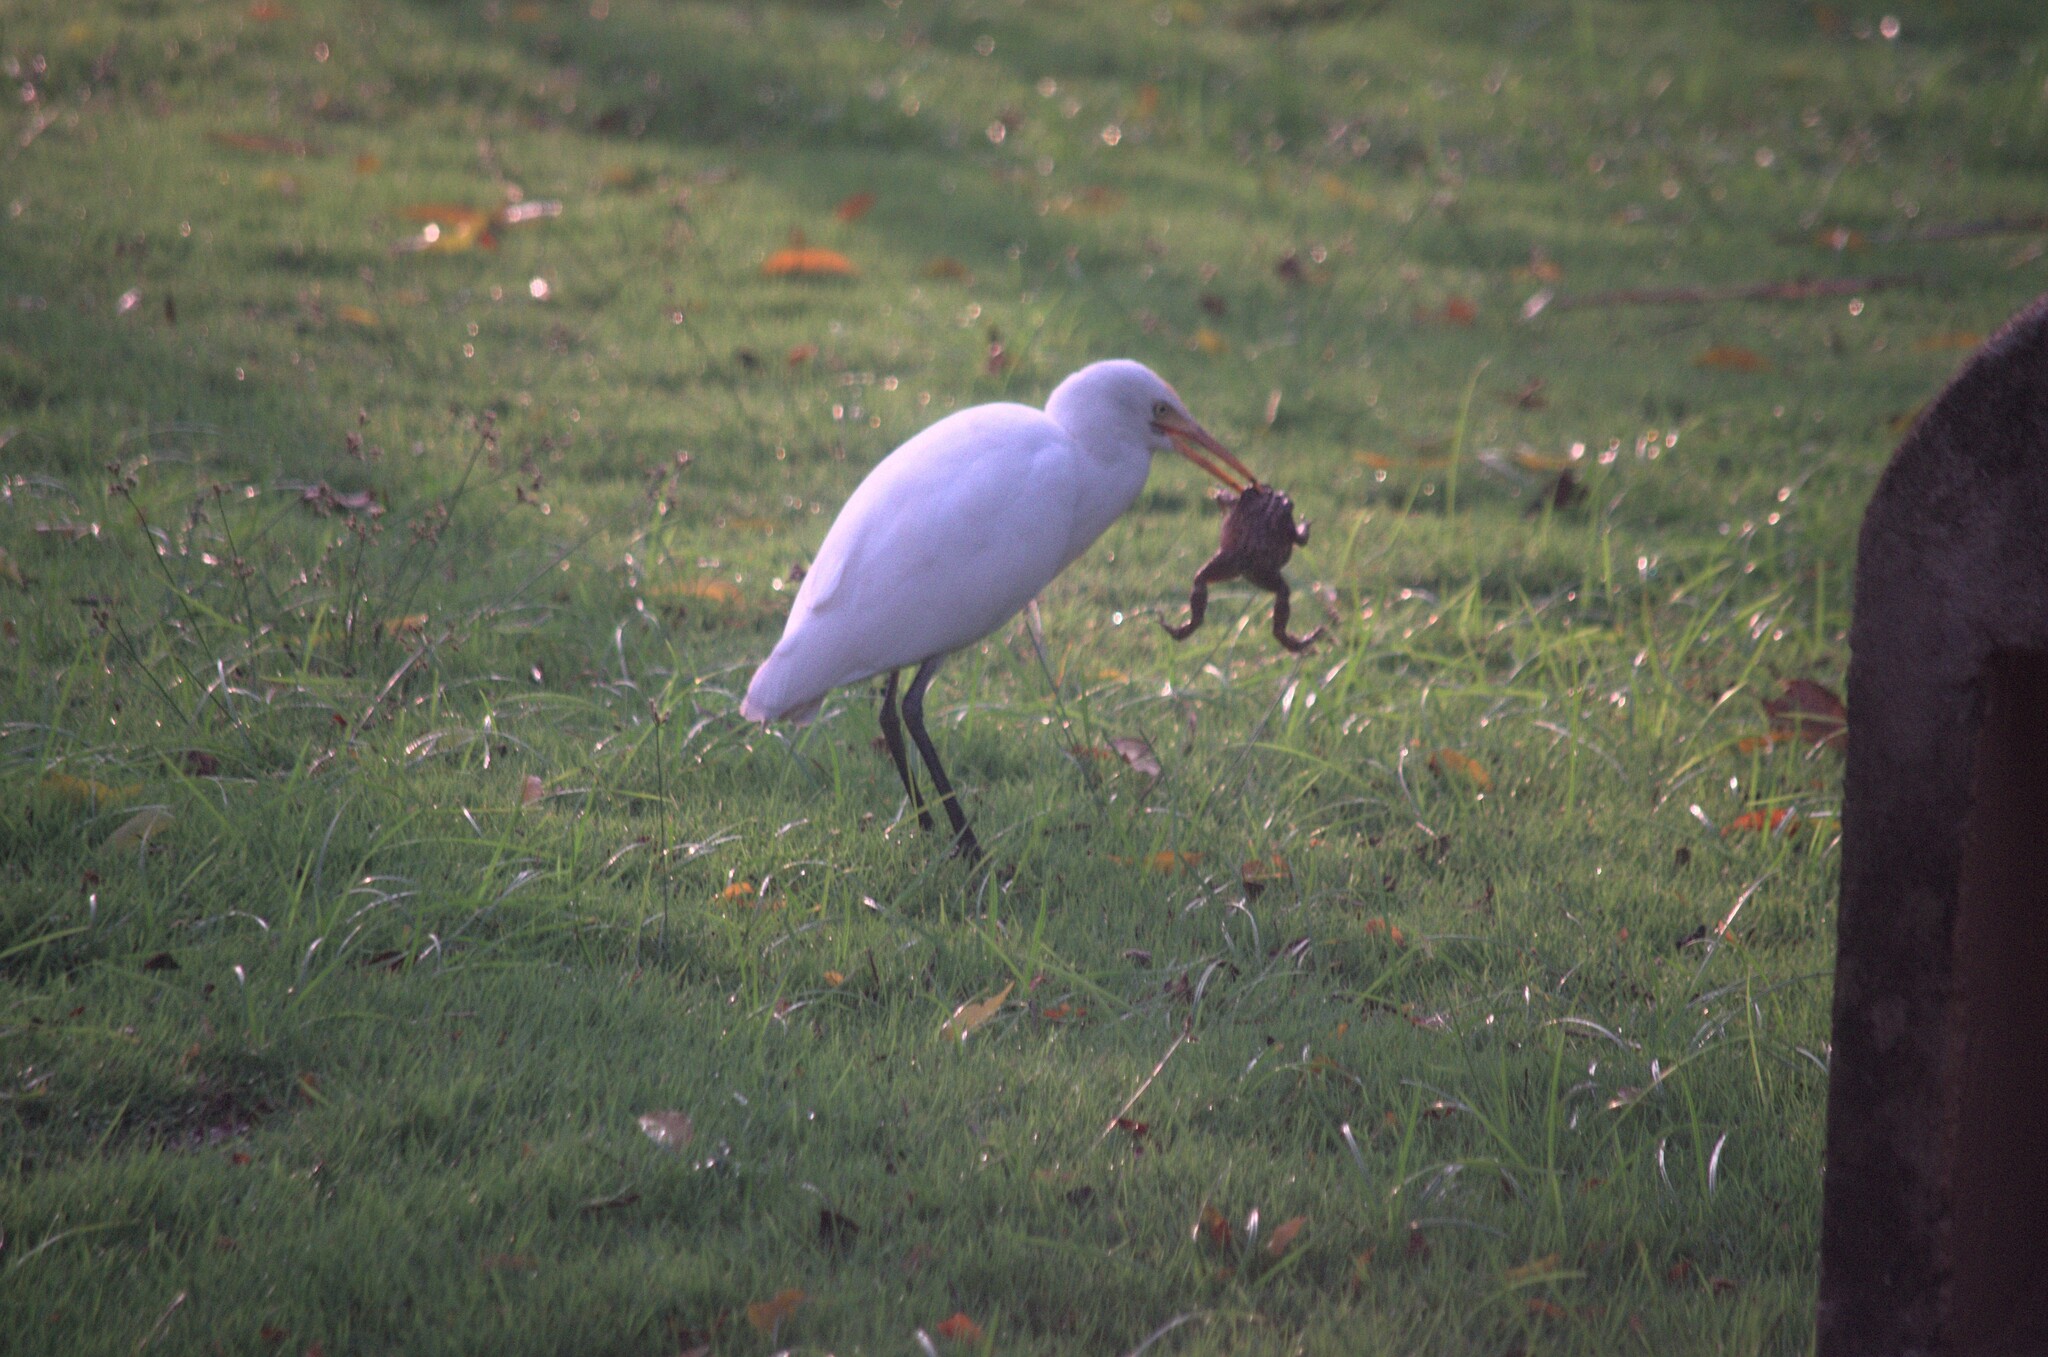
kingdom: Animalia
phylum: Chordata
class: Aves
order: Pelecaniformes
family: Ardeidae
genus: Bubulcus
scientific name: Bubulcus coromandus
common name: Eastern cattle egret
